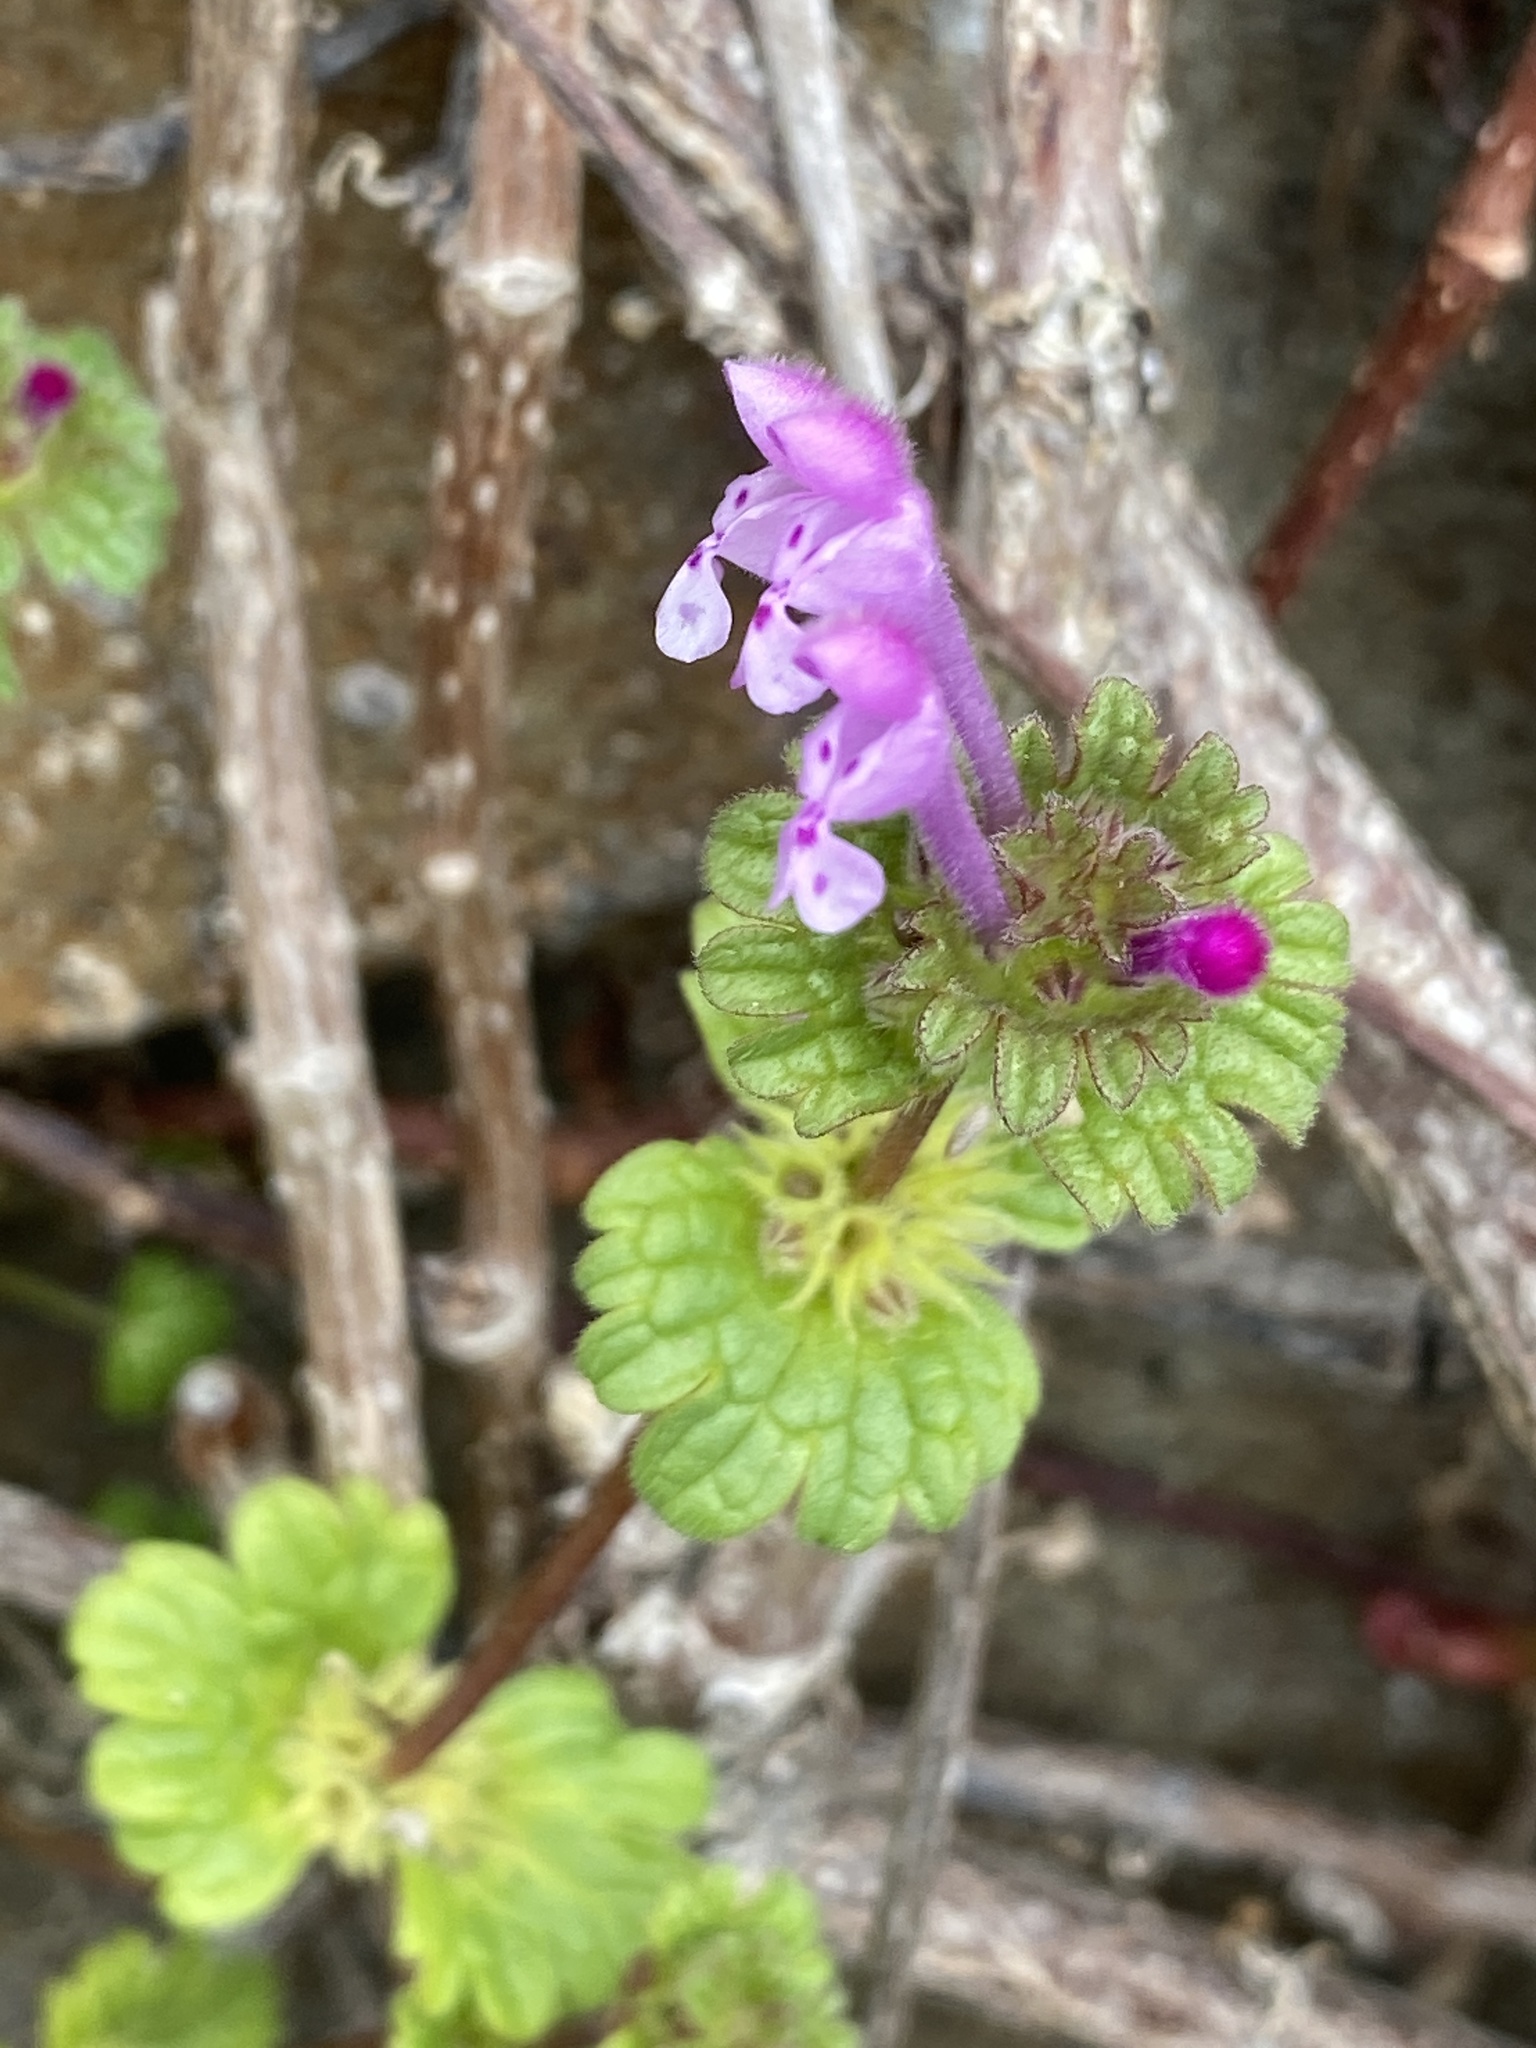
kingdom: Plantae
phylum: Tracheophyta
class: Magnoliopsida
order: Lamiales
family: Lamiaceae
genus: Lamium
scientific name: Lamium amplexicaule
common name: Henbit dead-nettle
